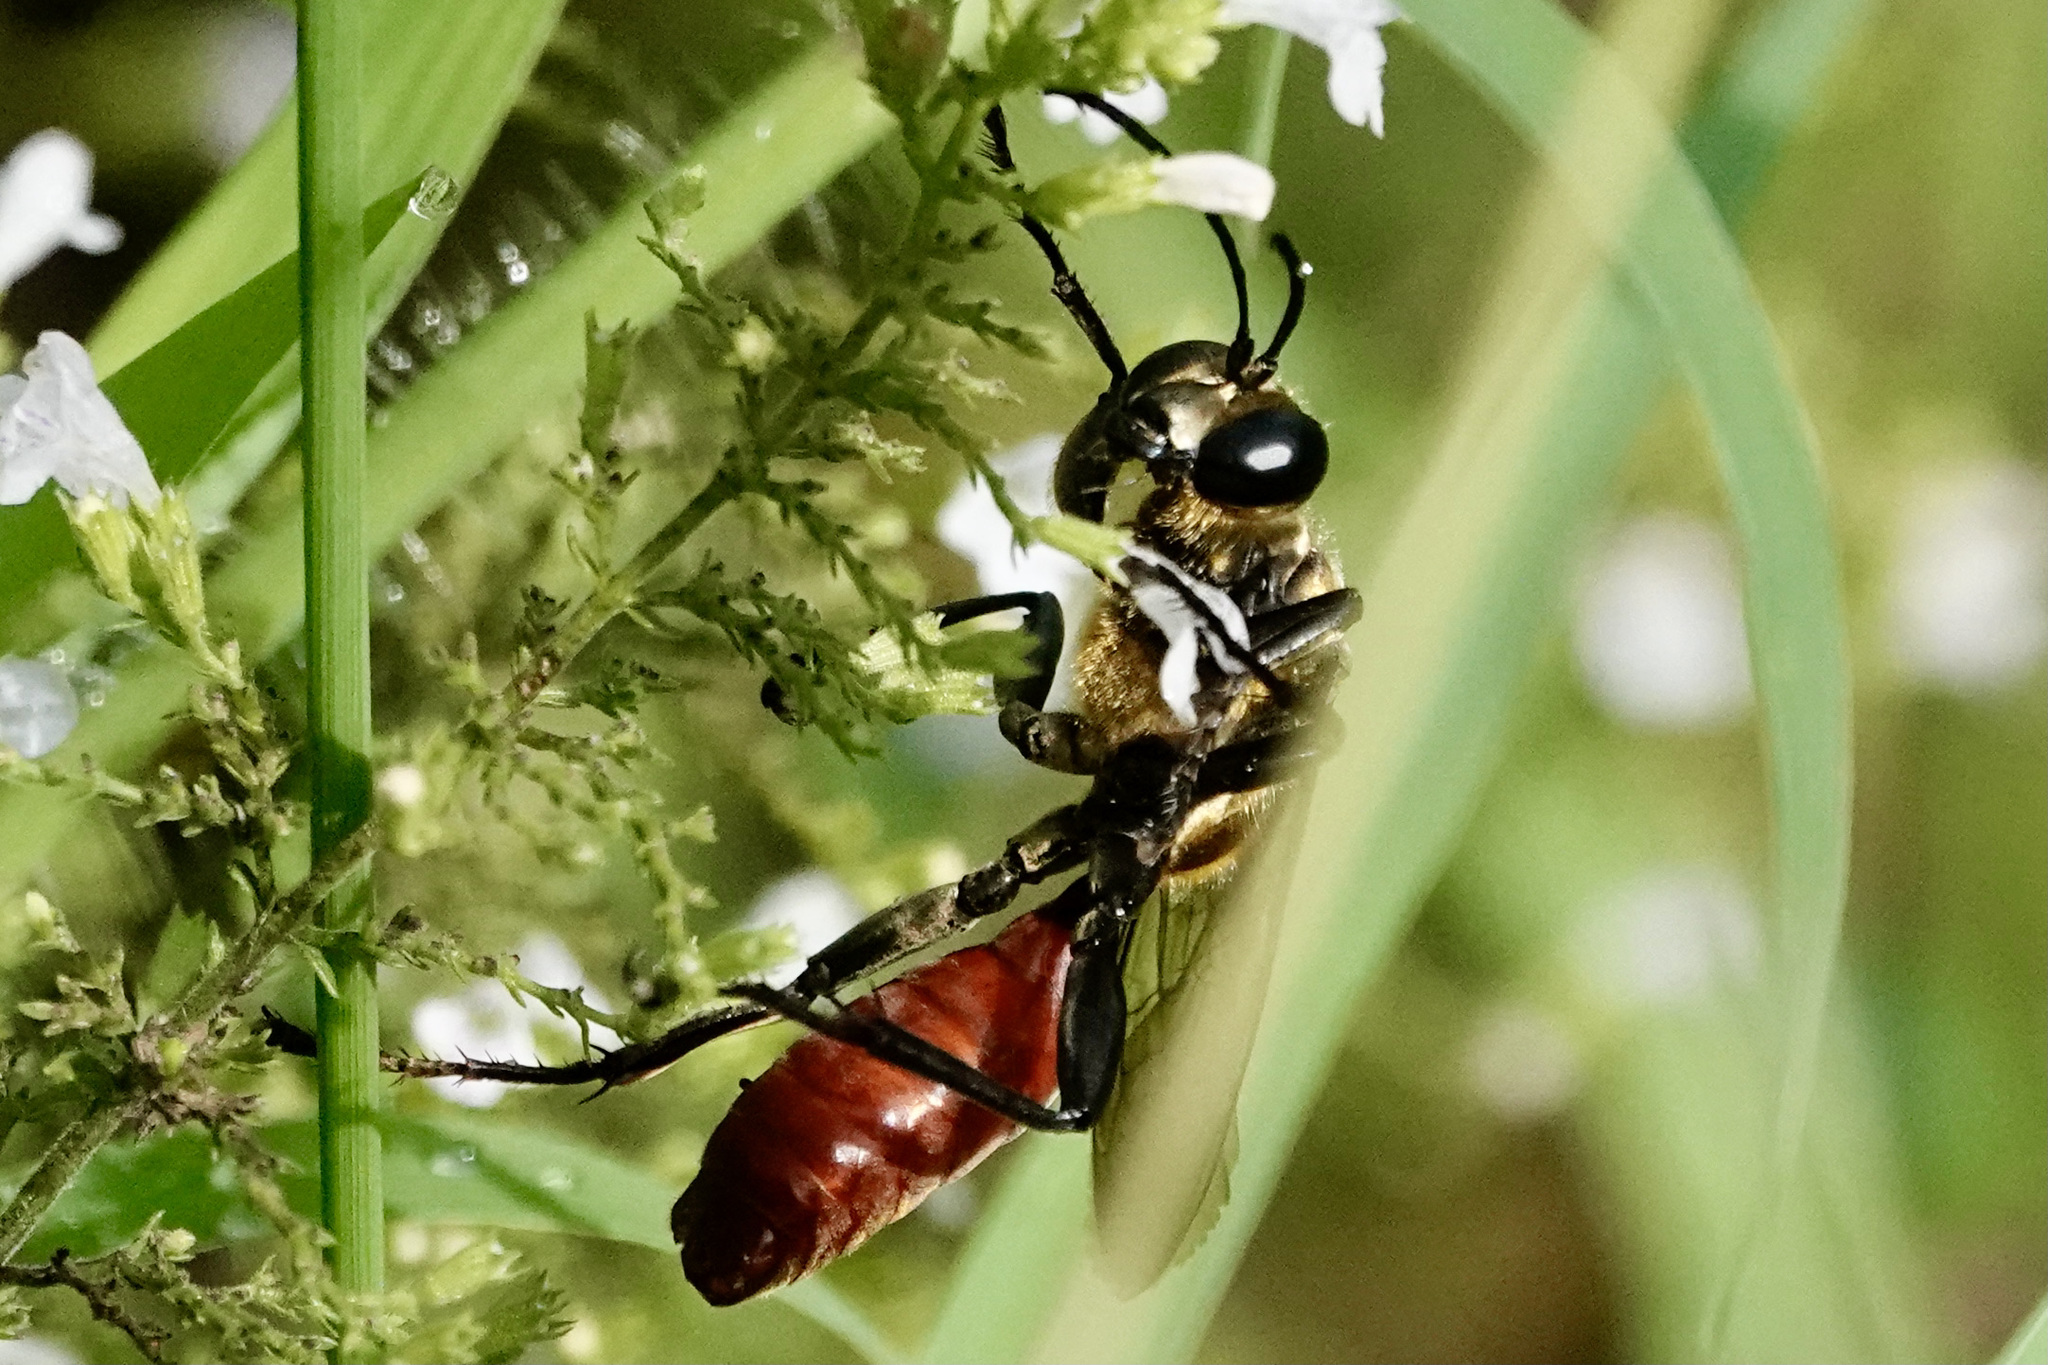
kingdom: Animalia
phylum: Arthropoda
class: Insecta
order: Hymenoptera
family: Sphecidae
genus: Sphex
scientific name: Sphex habenus
